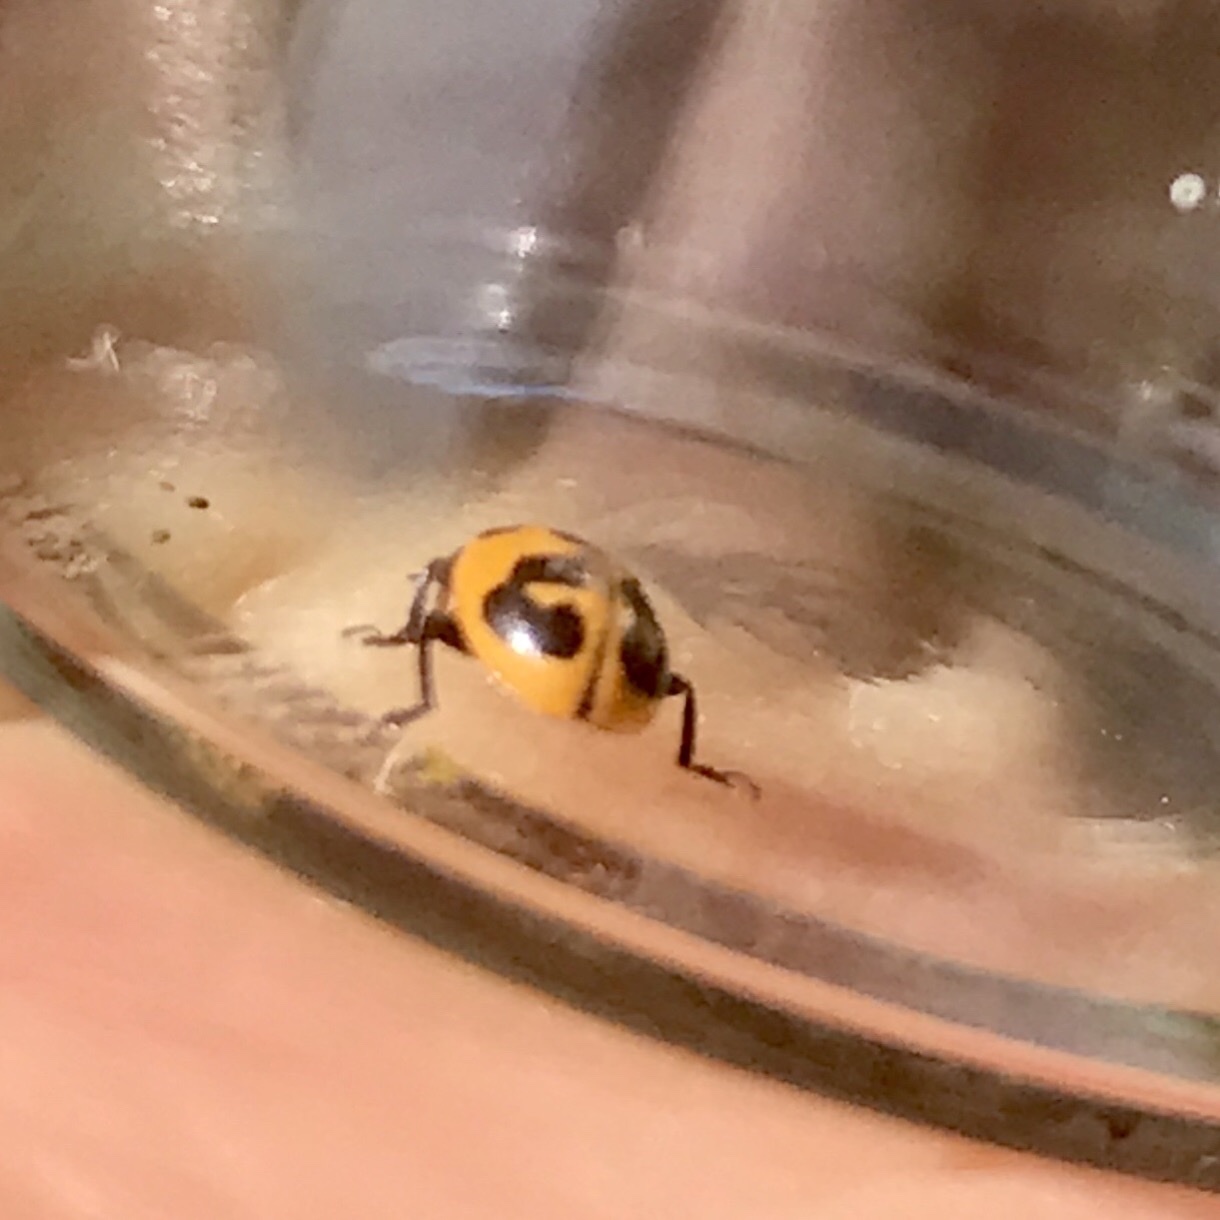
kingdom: Animalia
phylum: Arthropoda
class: Insecta
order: Coleoptera
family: Coccinellidae
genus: Hippodamia
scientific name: Hippodamia parenthesis
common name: Parenthesis lady beetle
